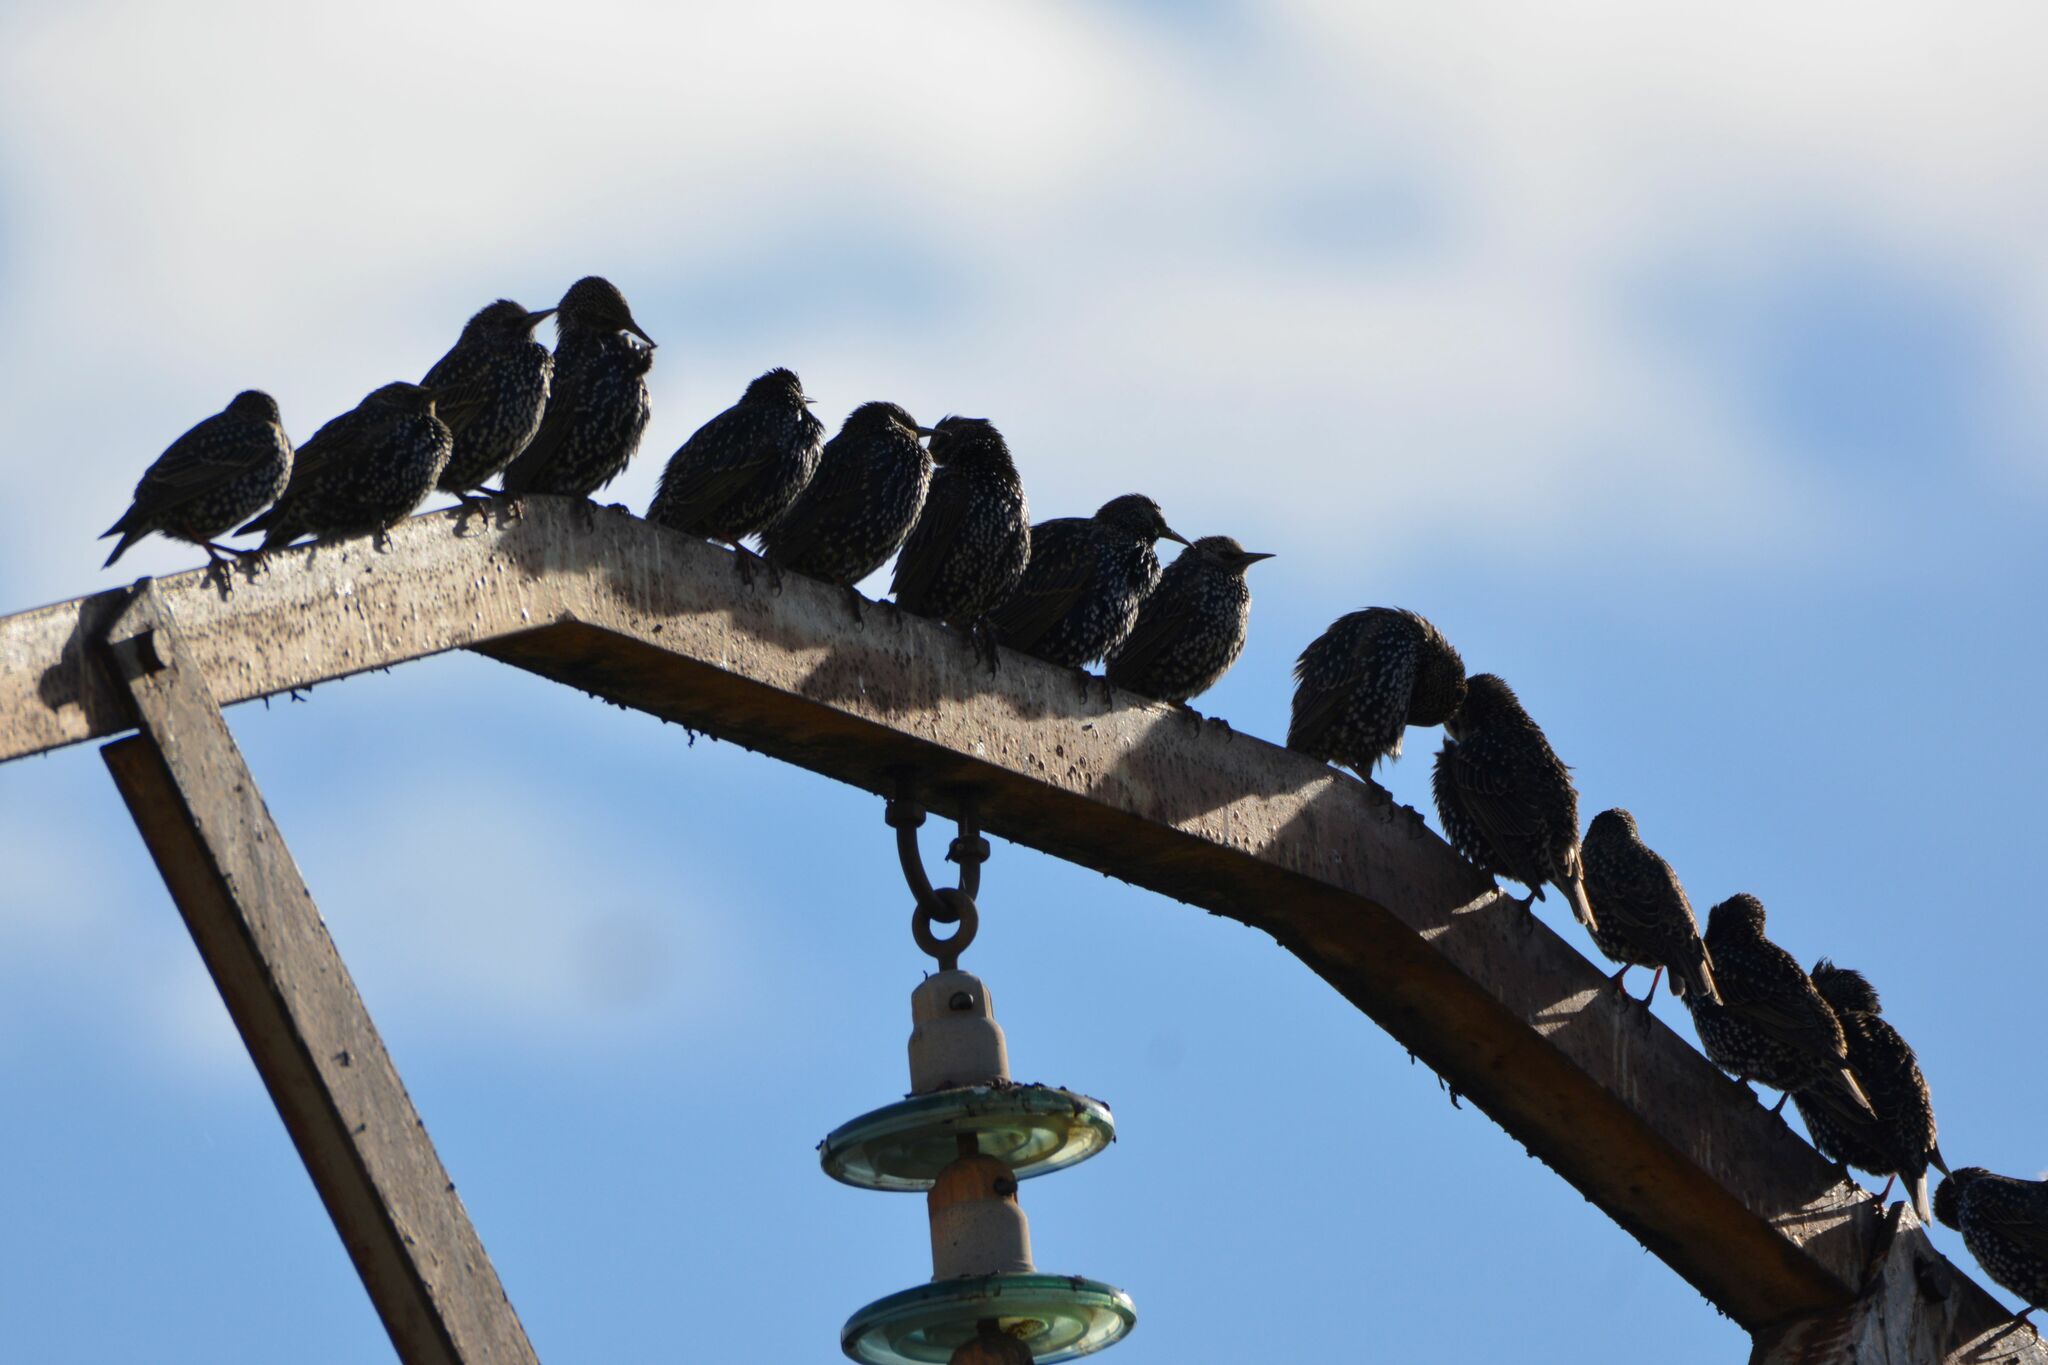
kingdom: Animalia
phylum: Chordata
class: Aves
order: Passeriformes
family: Sturnidae
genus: Sturnus
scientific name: Sturnus vulgaris
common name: Common starling
